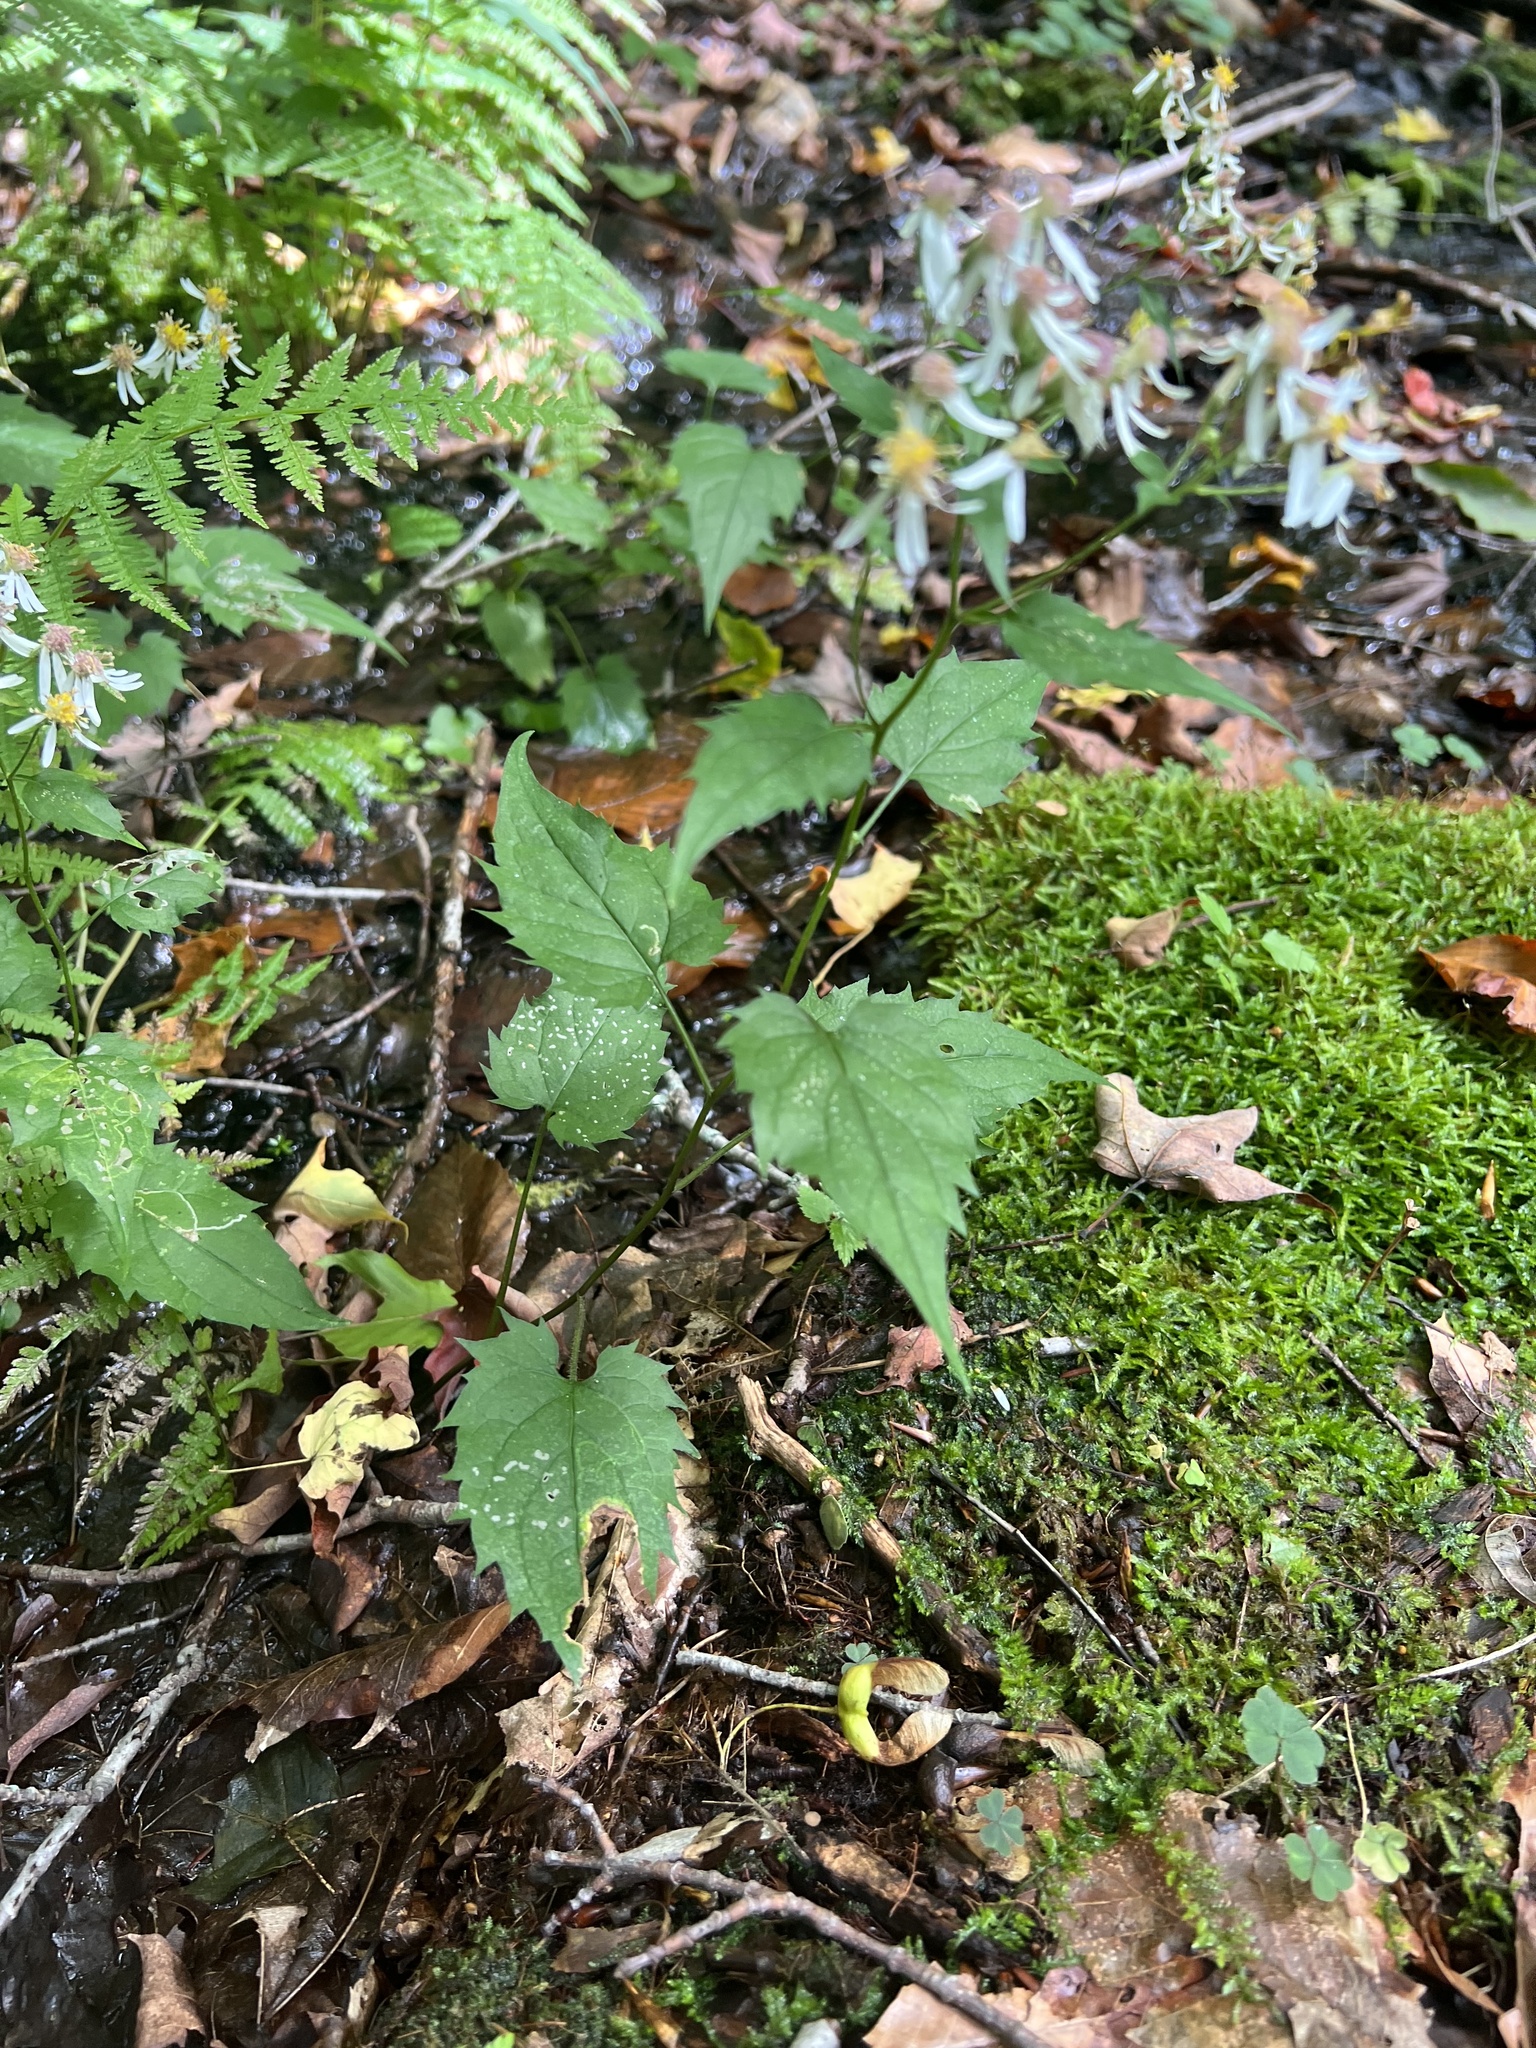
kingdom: Plantae
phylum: Tracheophyta
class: Magnoliopsida
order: Asterales
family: Asteraceae
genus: Eurybia
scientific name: Eurybia divaricata
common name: White wood aster
